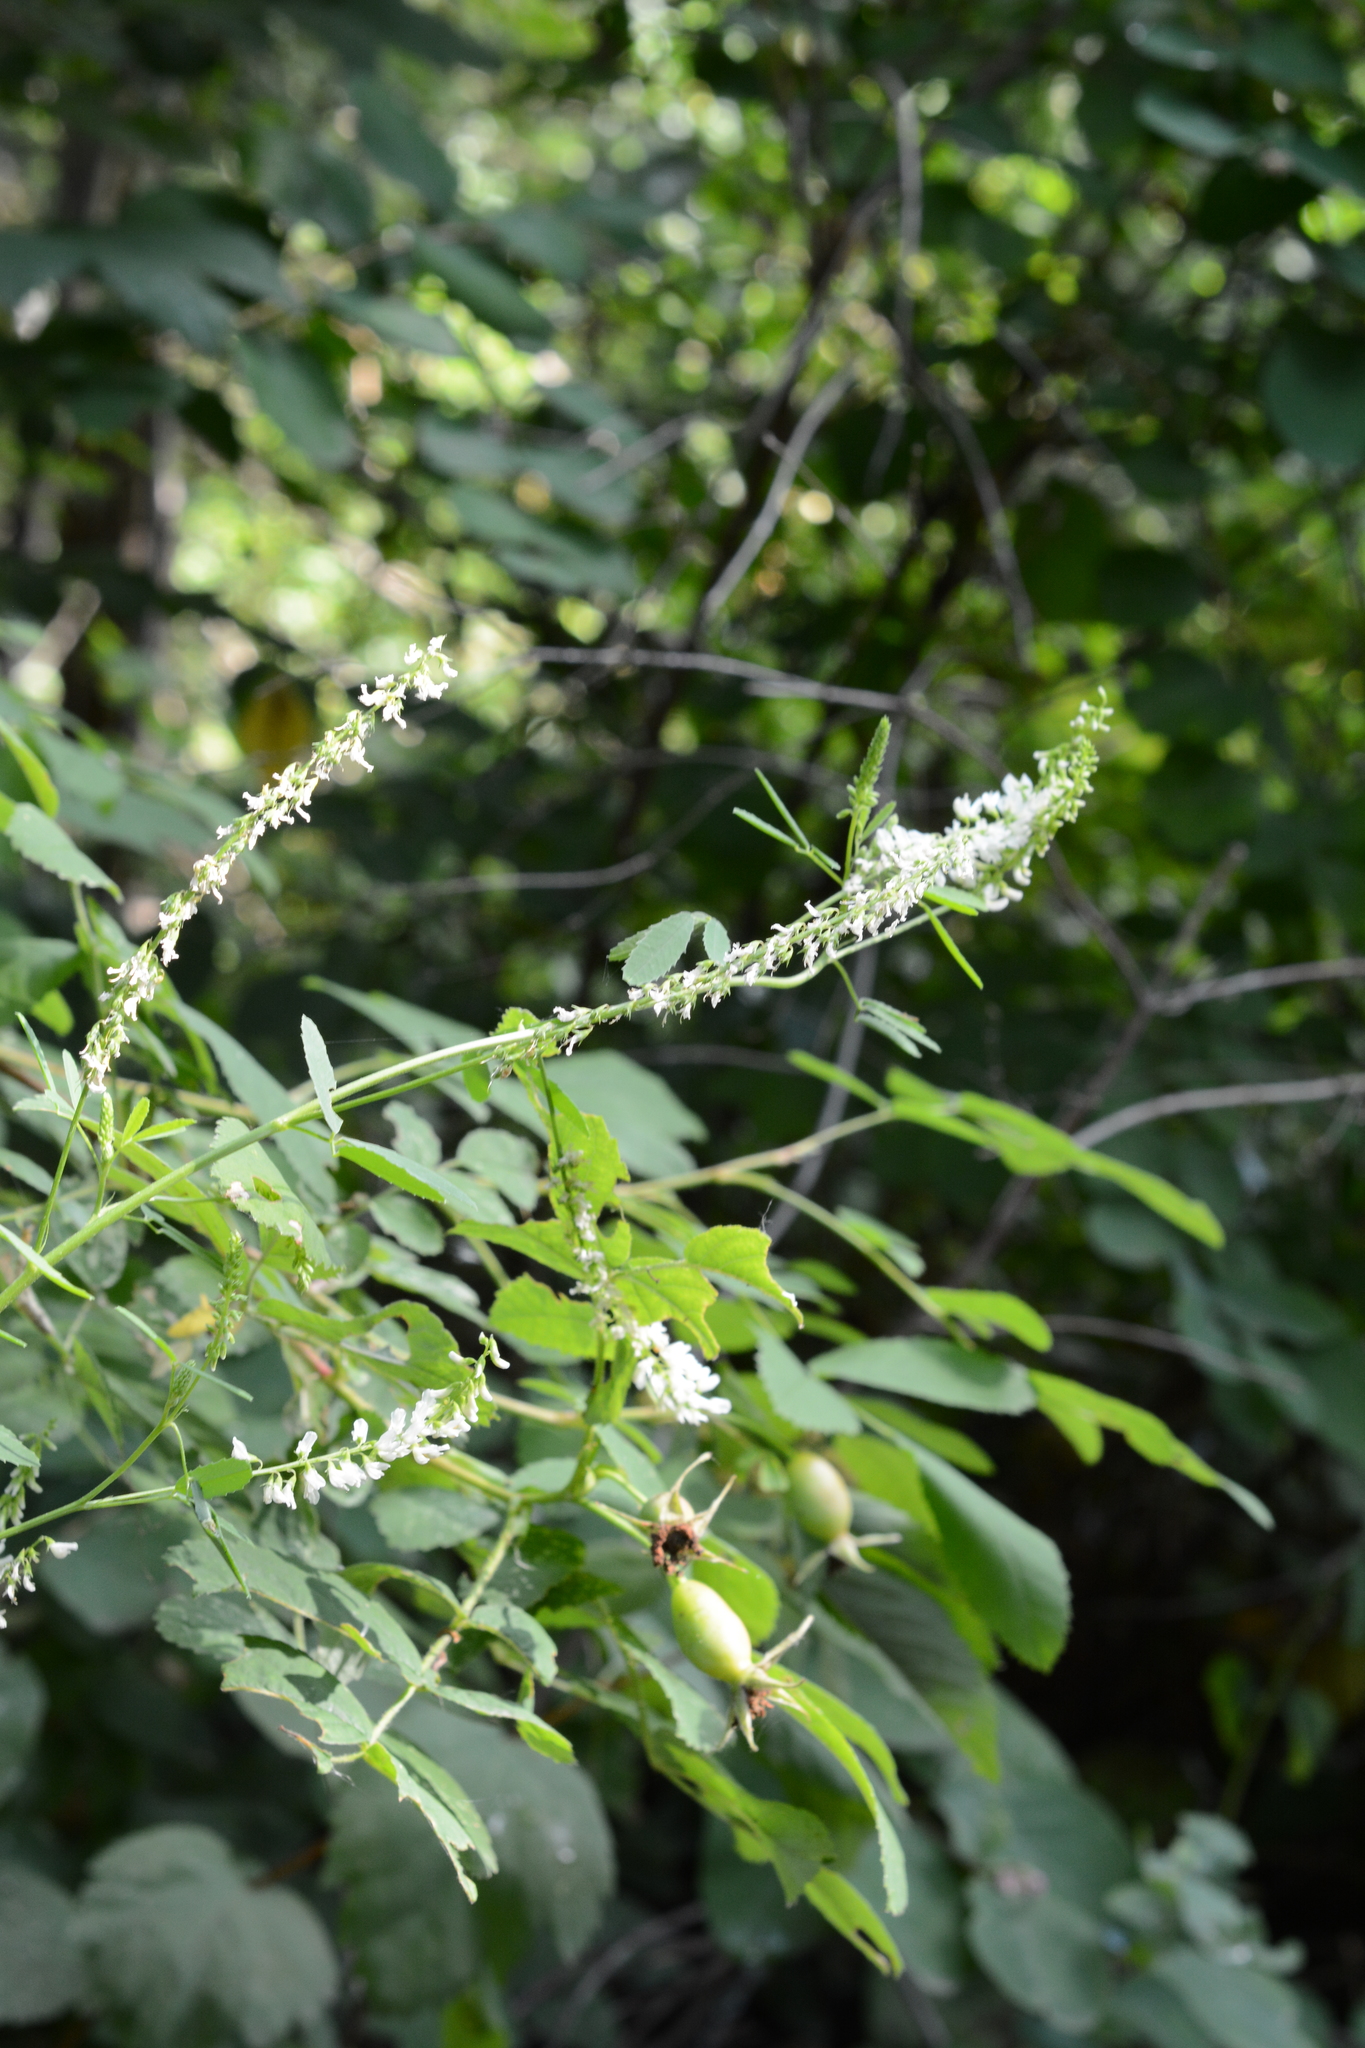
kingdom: Plantae
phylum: Tracheophyta
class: Magnoliopsida
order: Fabales
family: Fabaceae
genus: Melilotus
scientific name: Melilotus albus
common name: White melilot
